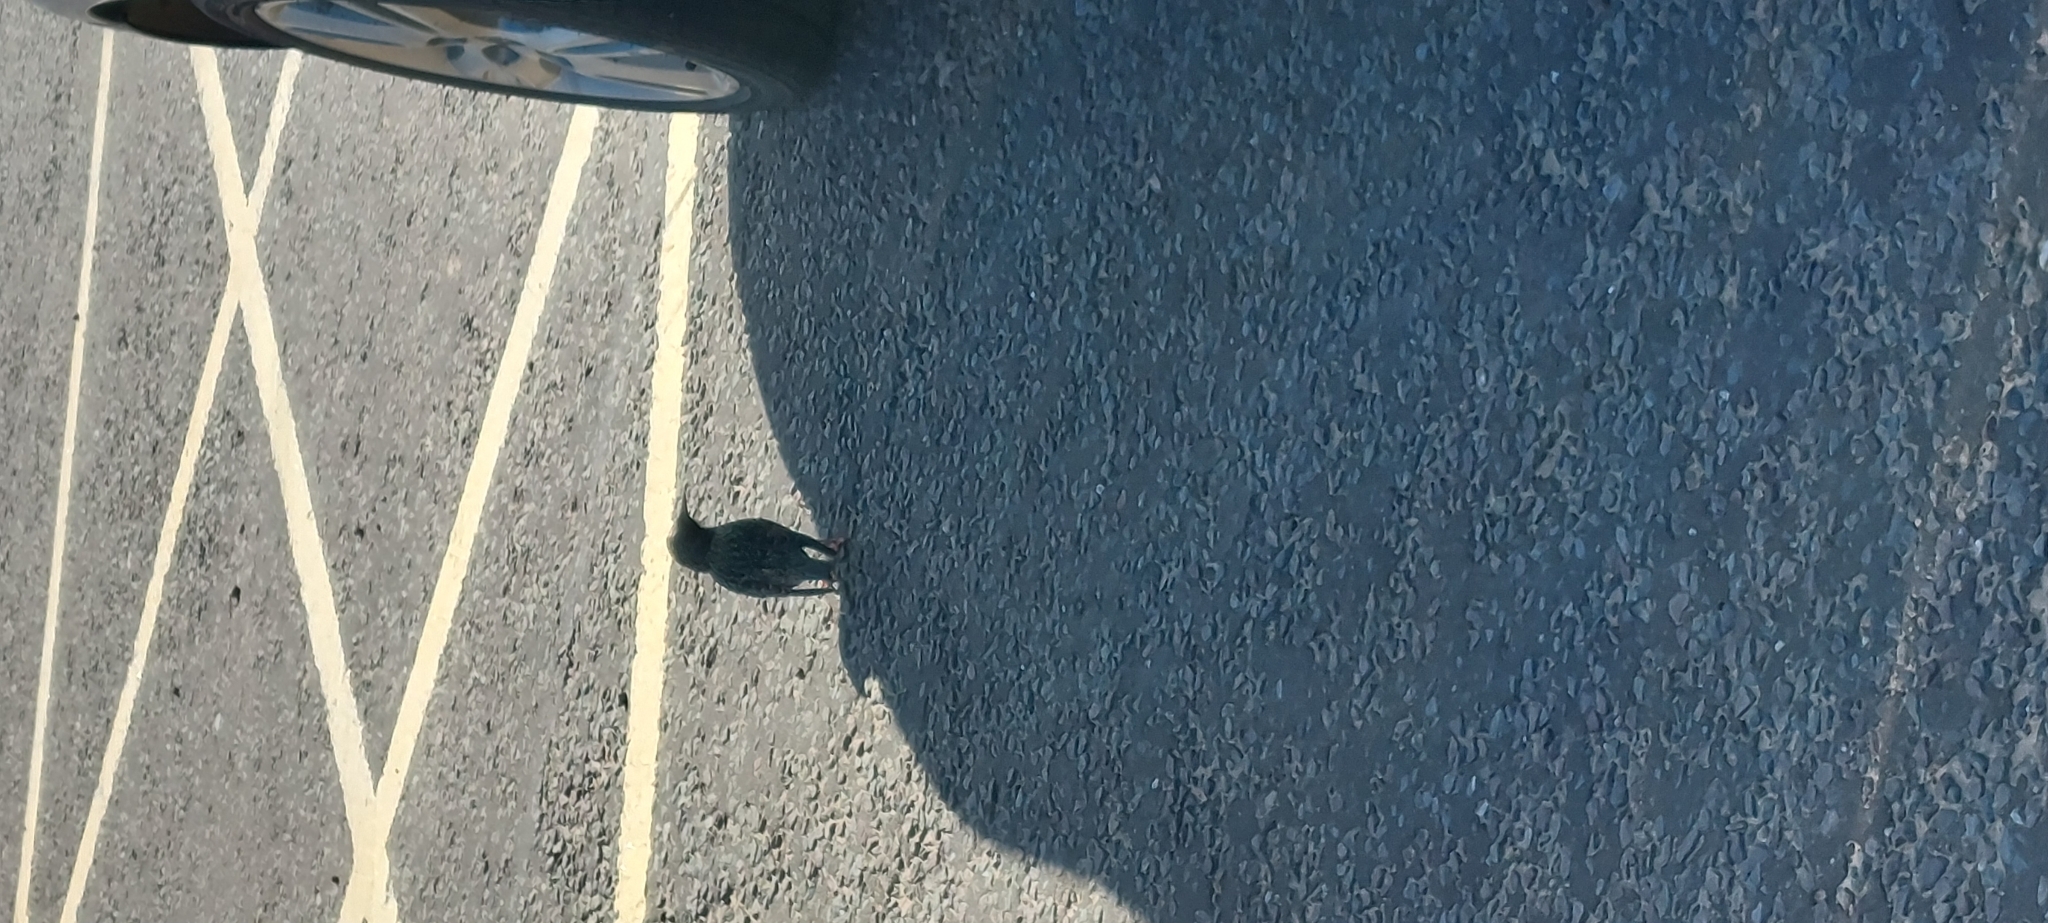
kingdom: Animalia
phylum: Chordata
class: Aves
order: Passeriformes
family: Sturnidae
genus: Sturnus
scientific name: Sturnus vulgaris
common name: Common starling
